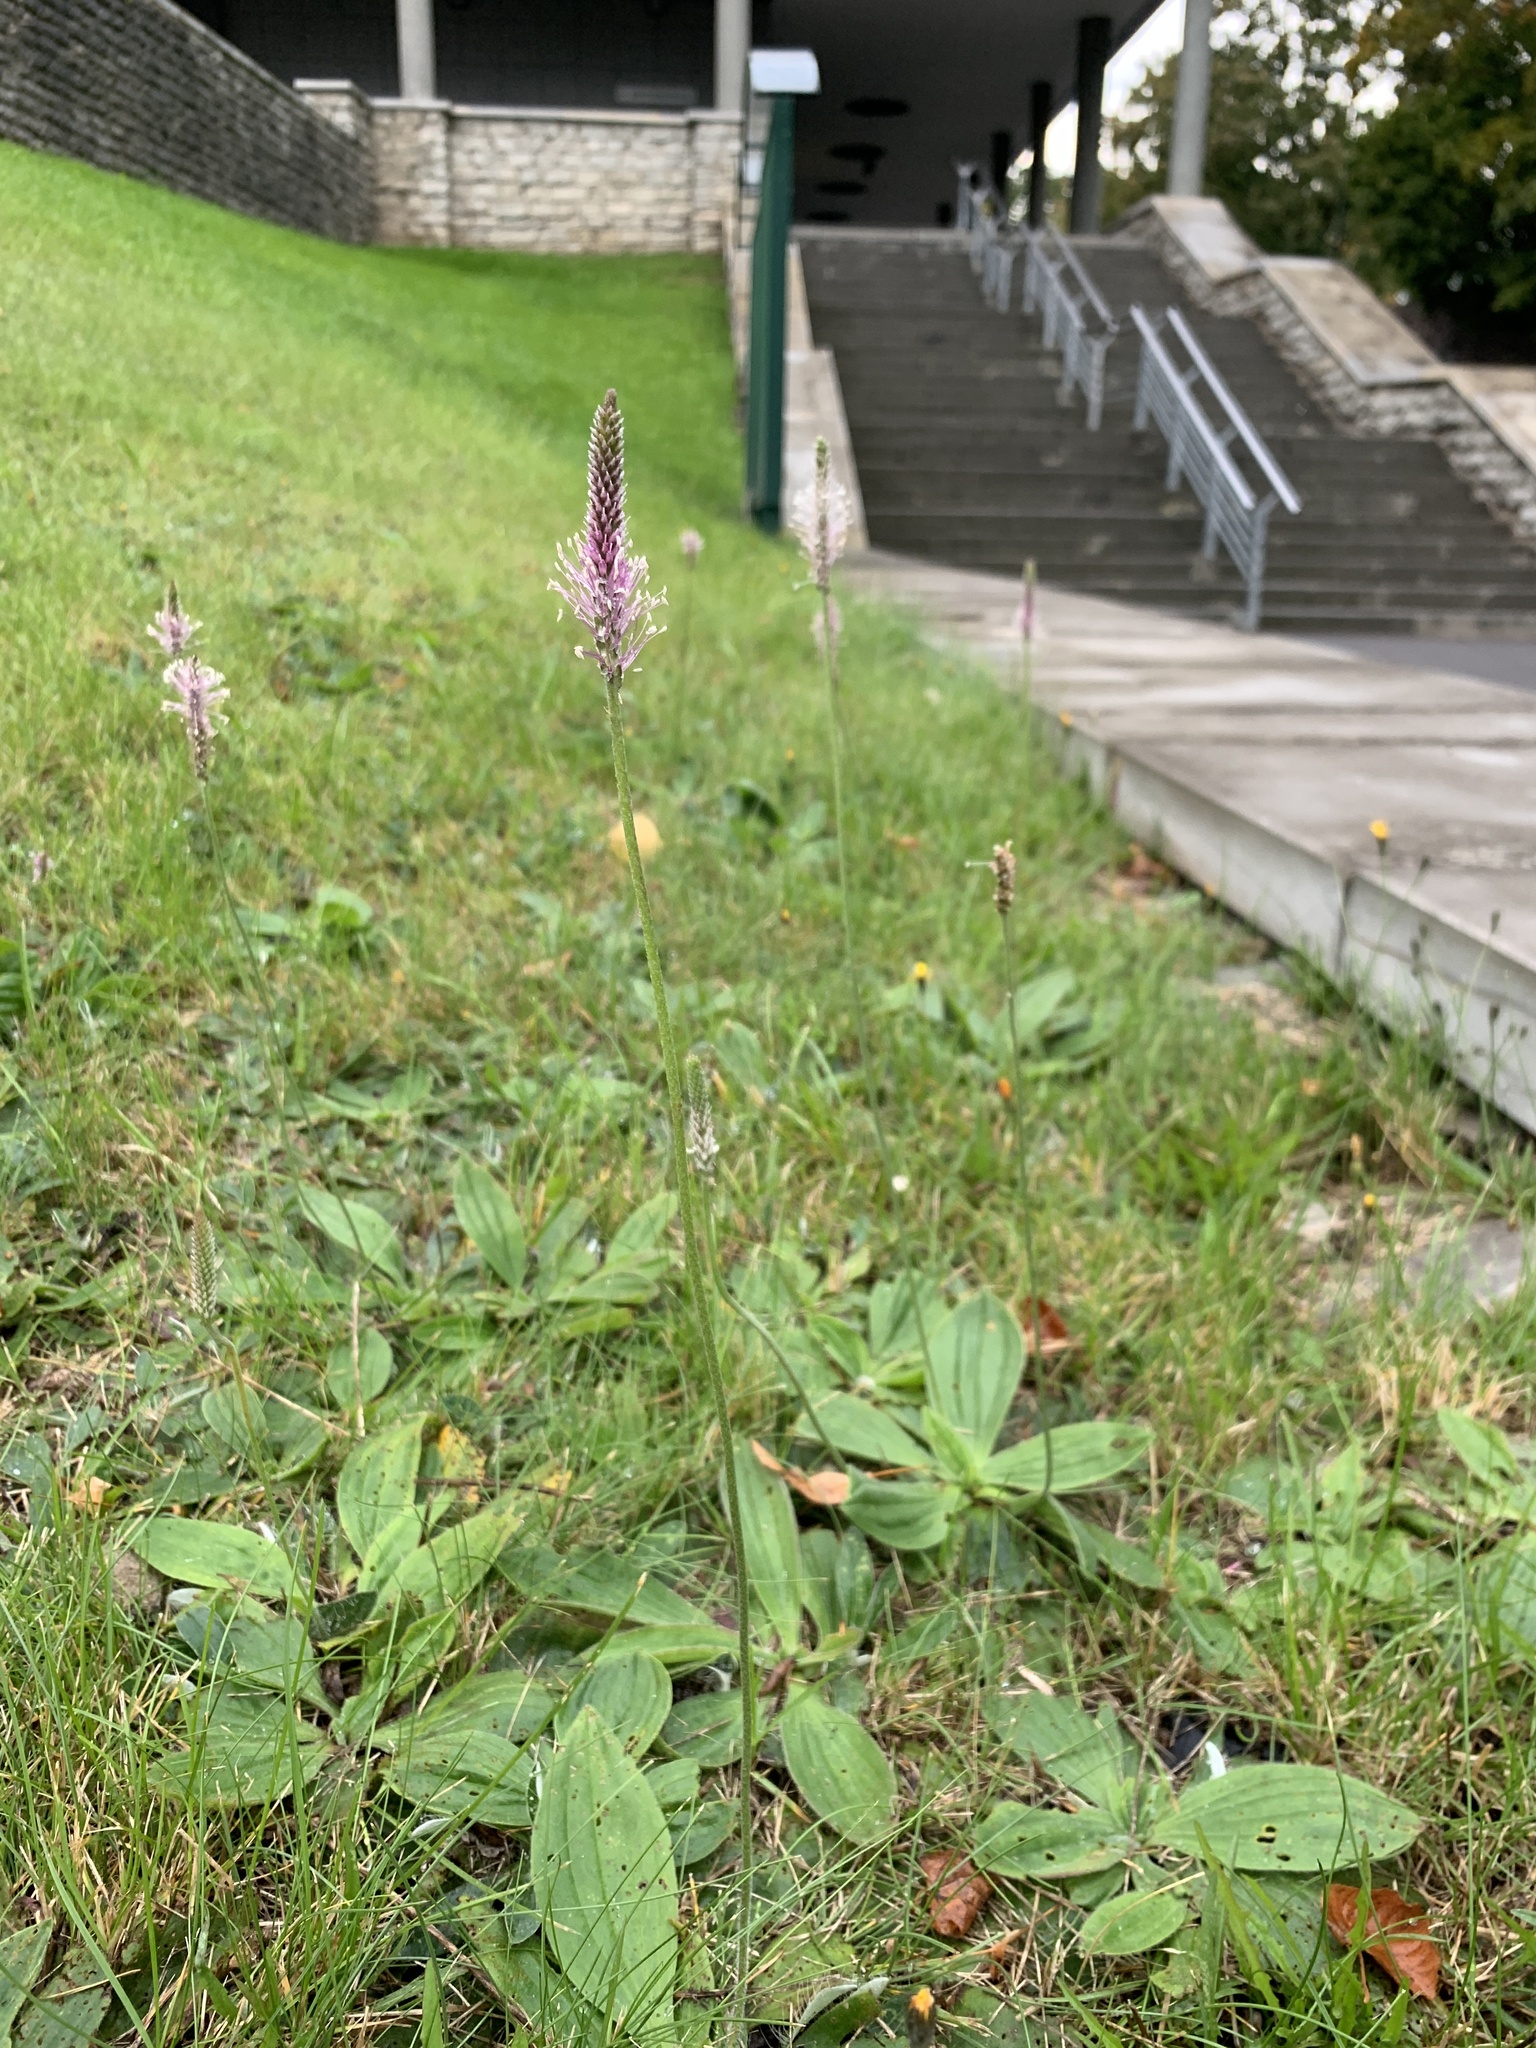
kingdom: Plantae
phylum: Tracheophyta
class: Magnoliopsida
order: Lamiales
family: Plantaginaceae
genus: Plantago
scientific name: Plantago media
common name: Hoary plantain
